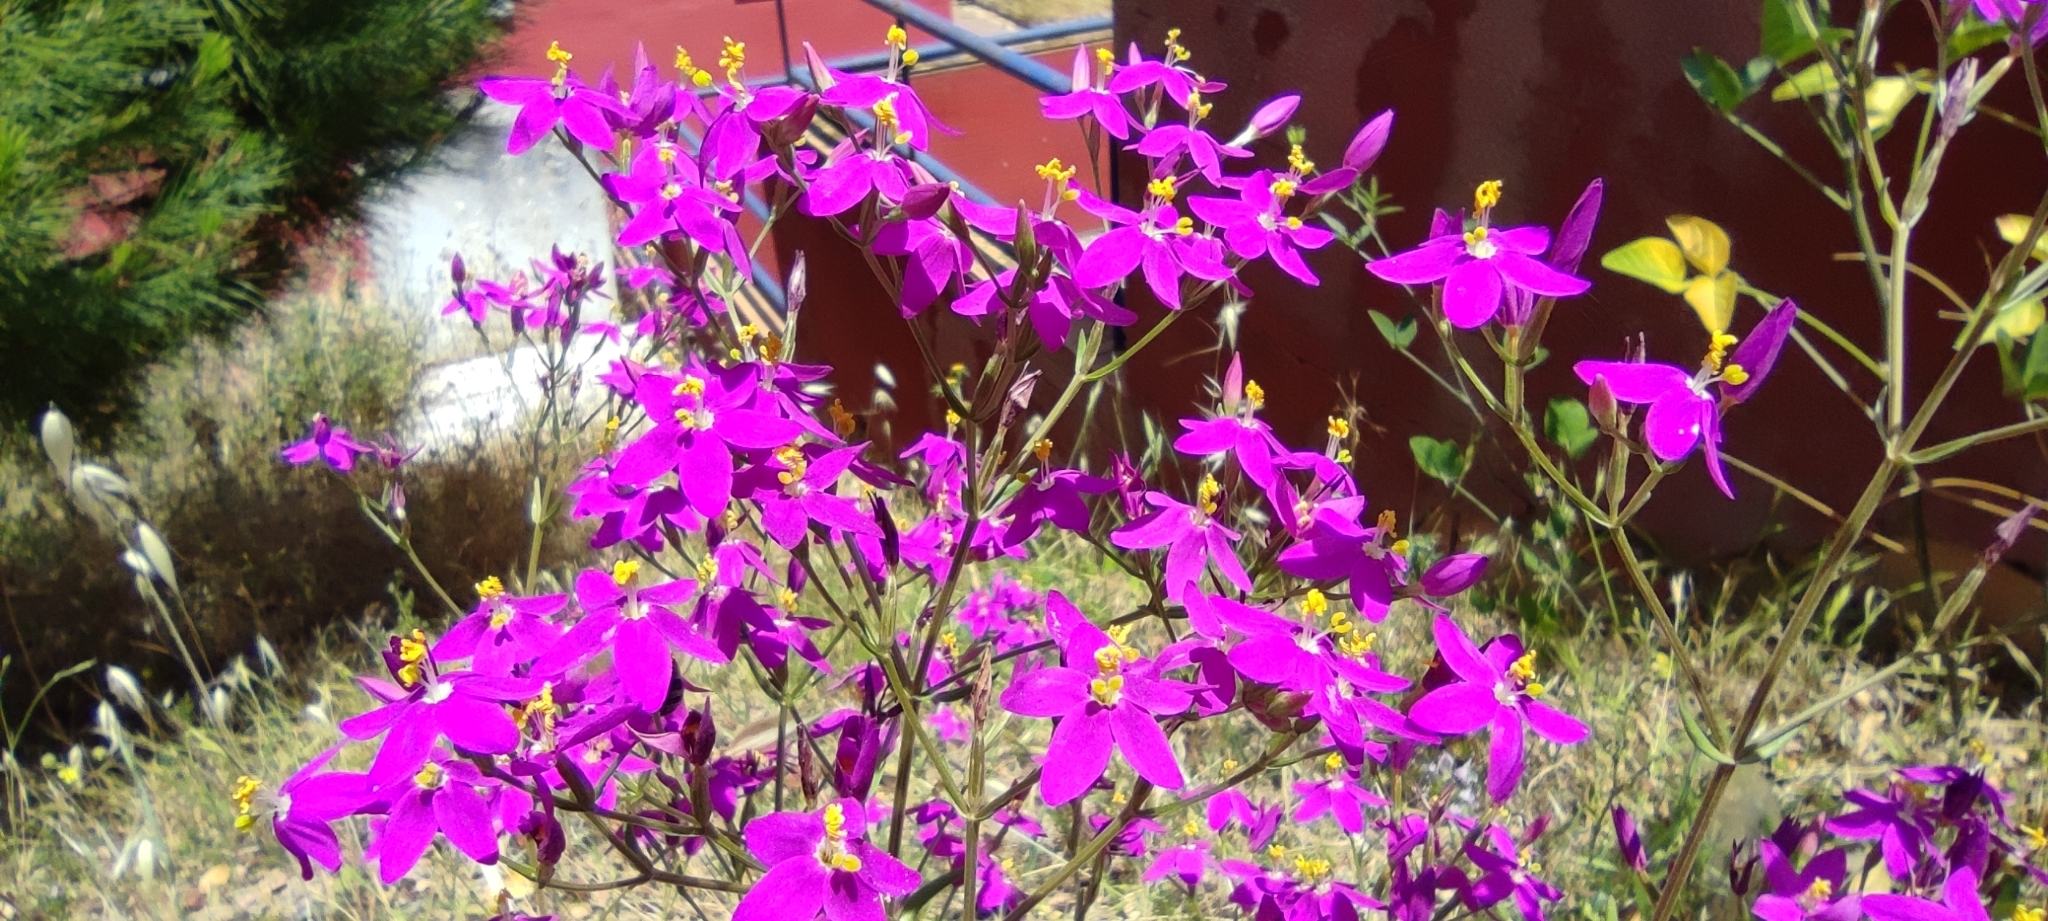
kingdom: Plantae
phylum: Tracheophyta
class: Magnoliopsida
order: Gentianales
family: Gentianaceae
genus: Centaurium
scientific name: Centaurium grandiflorum
